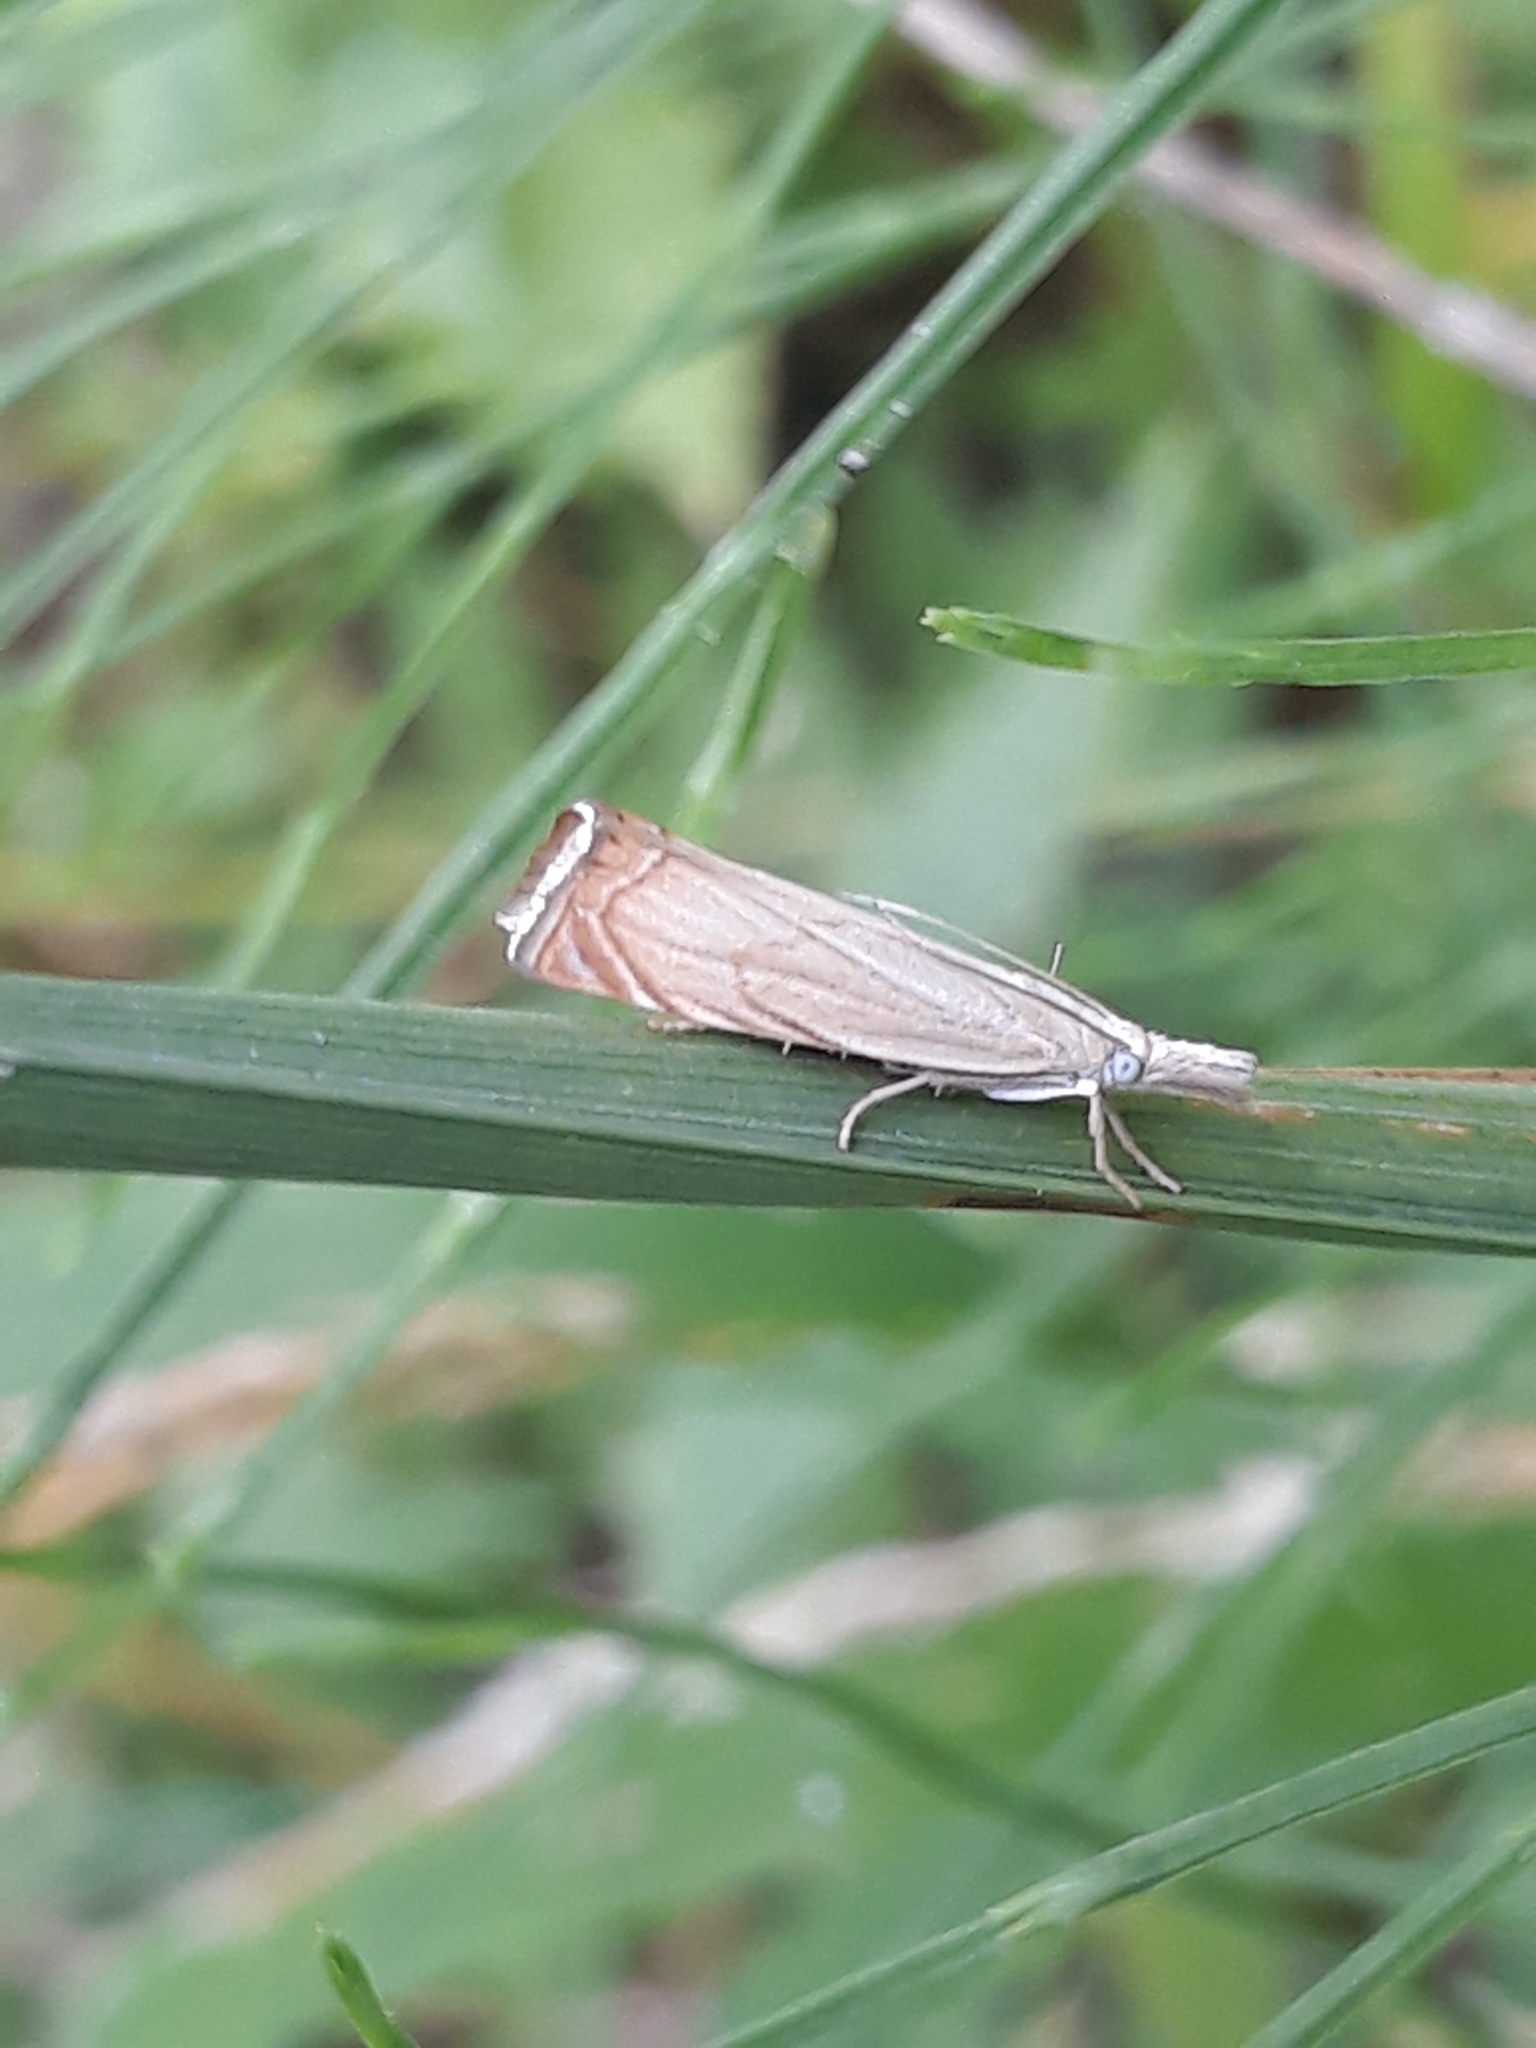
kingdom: Animalia
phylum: Arthropoda
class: Insecta
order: Lepidoptera
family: Crambidae
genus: Chrysoteuchia
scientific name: Chrysoteuchia culmella
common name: Garden grass-veneer
